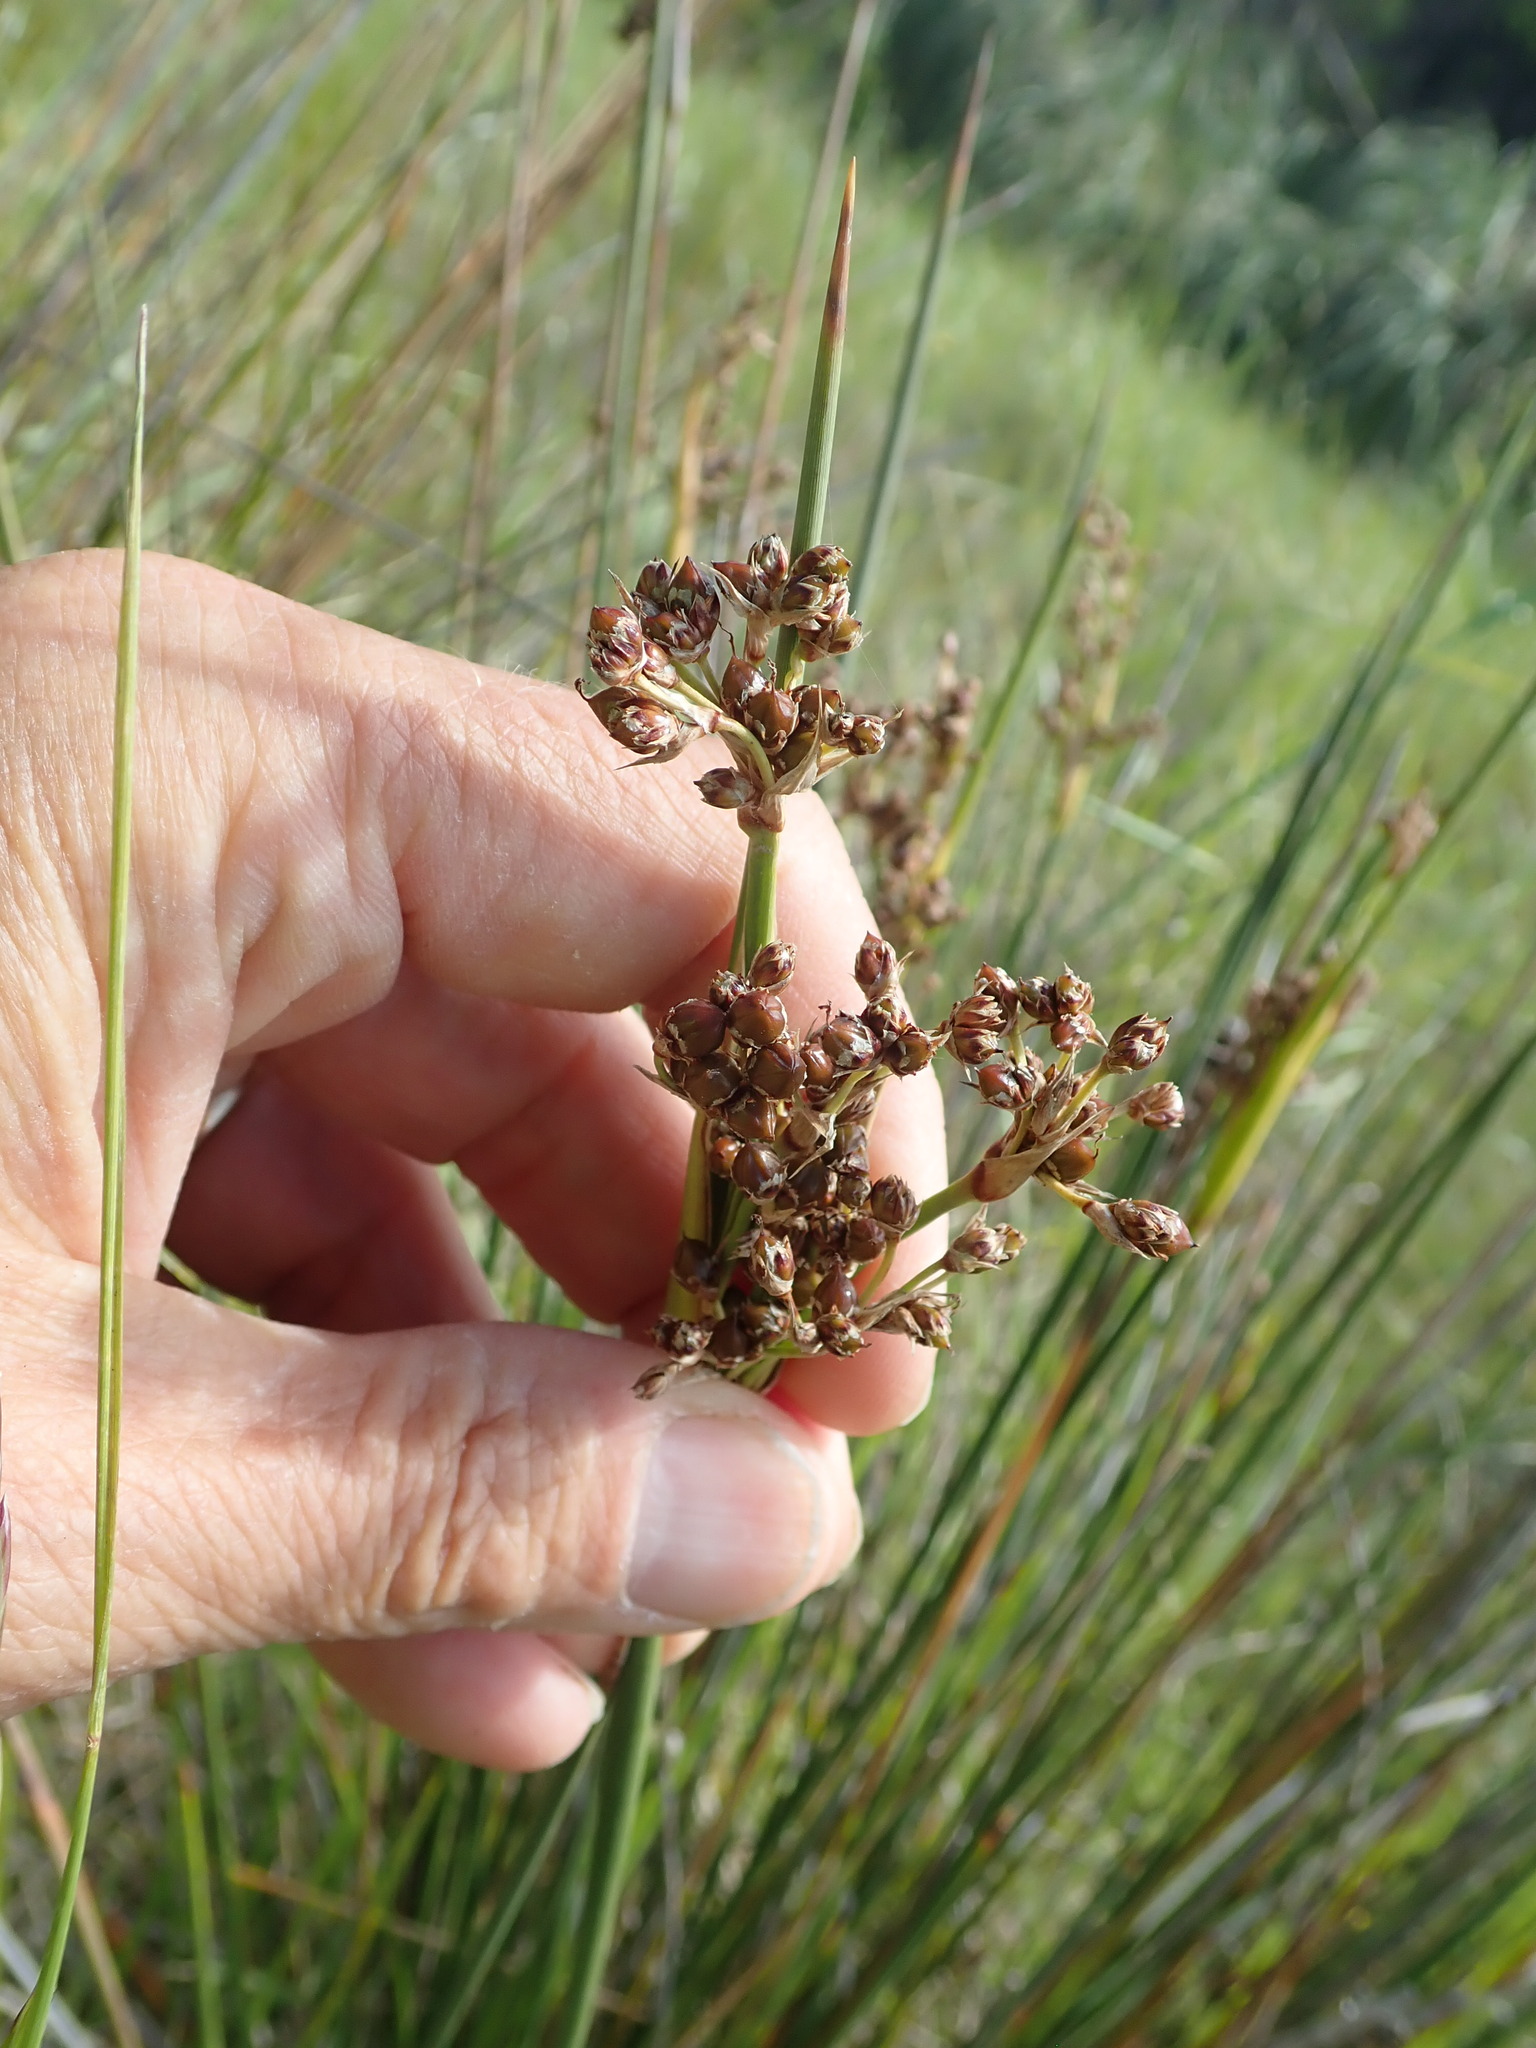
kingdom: Plantae
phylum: Tracheophyta
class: Liliopsida
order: Poales
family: Juncaceae
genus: Juncus
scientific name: Juncus acutus
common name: Sharp rush
